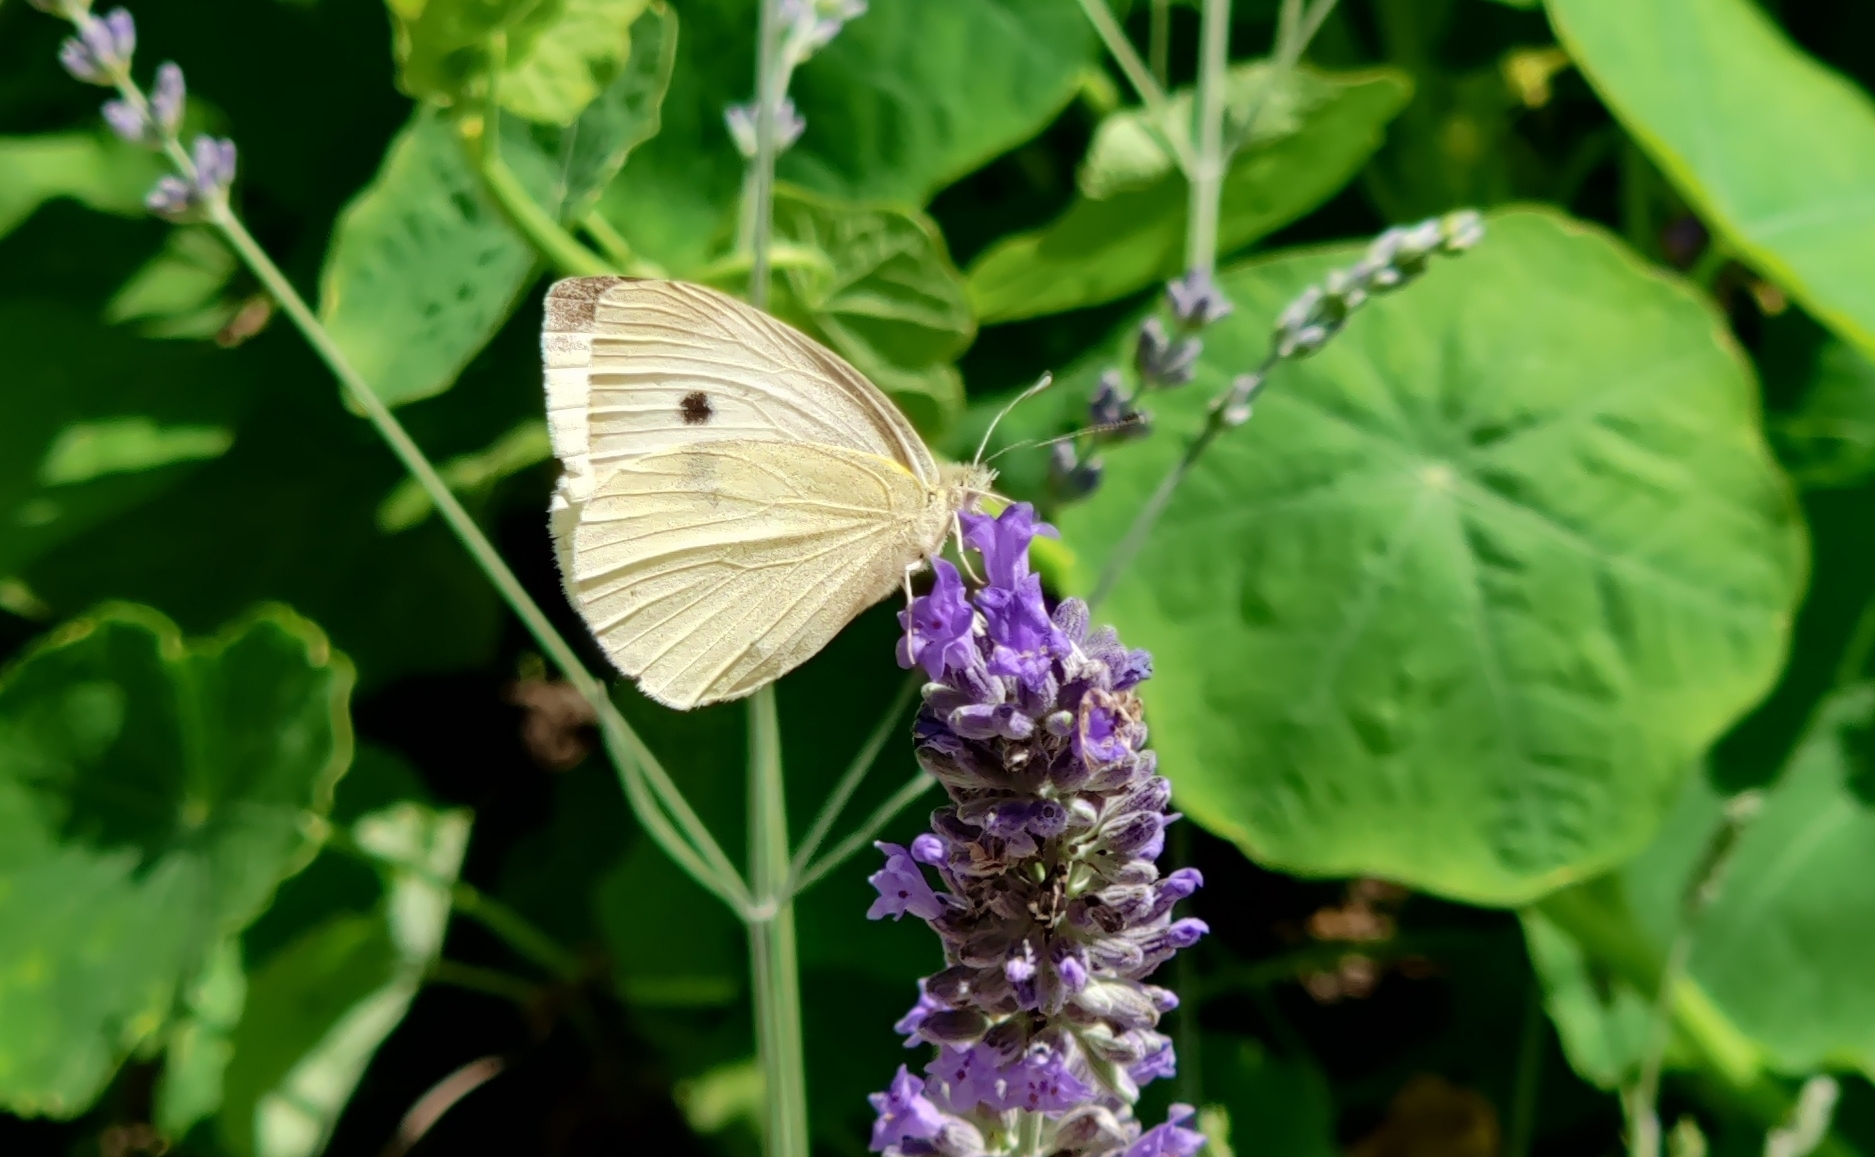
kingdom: Animalia
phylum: Arthropoda
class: Insecta
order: Lepidoptera
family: Pieridae
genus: Pieris
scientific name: Pieris rapae
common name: Small white
